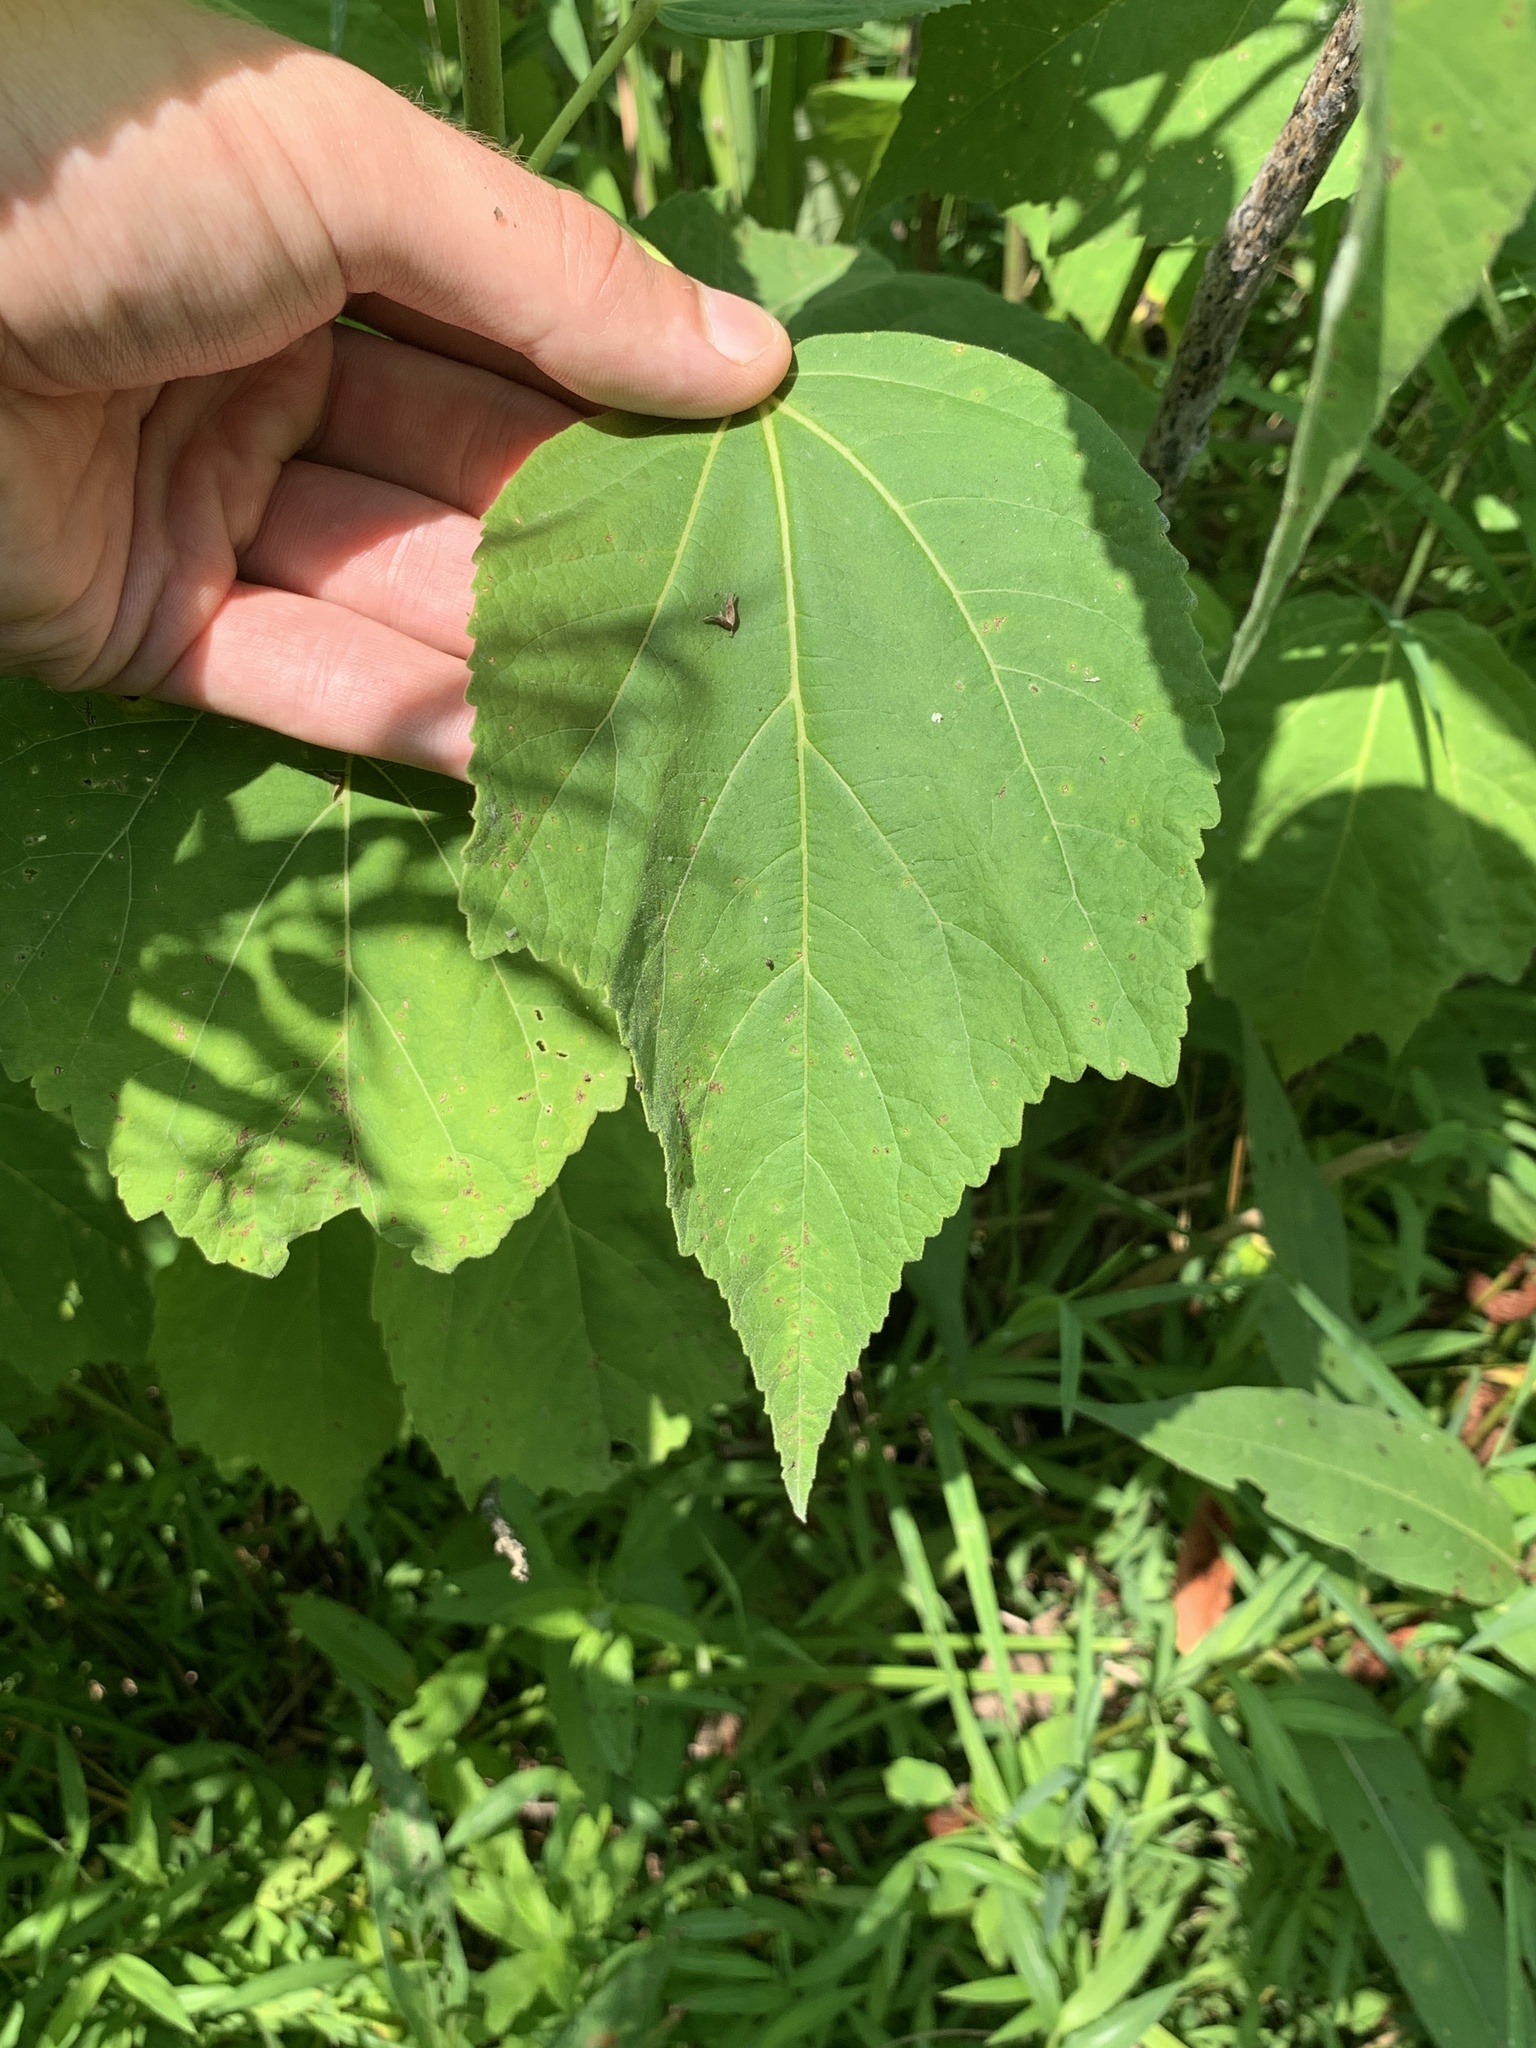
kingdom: Plantae
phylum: Tracheophyta
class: Magnoliopsida
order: Malvales
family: Malvaceae
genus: Hibiscus
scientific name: Hibiscus moscheutos
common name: Common rose-mallow
